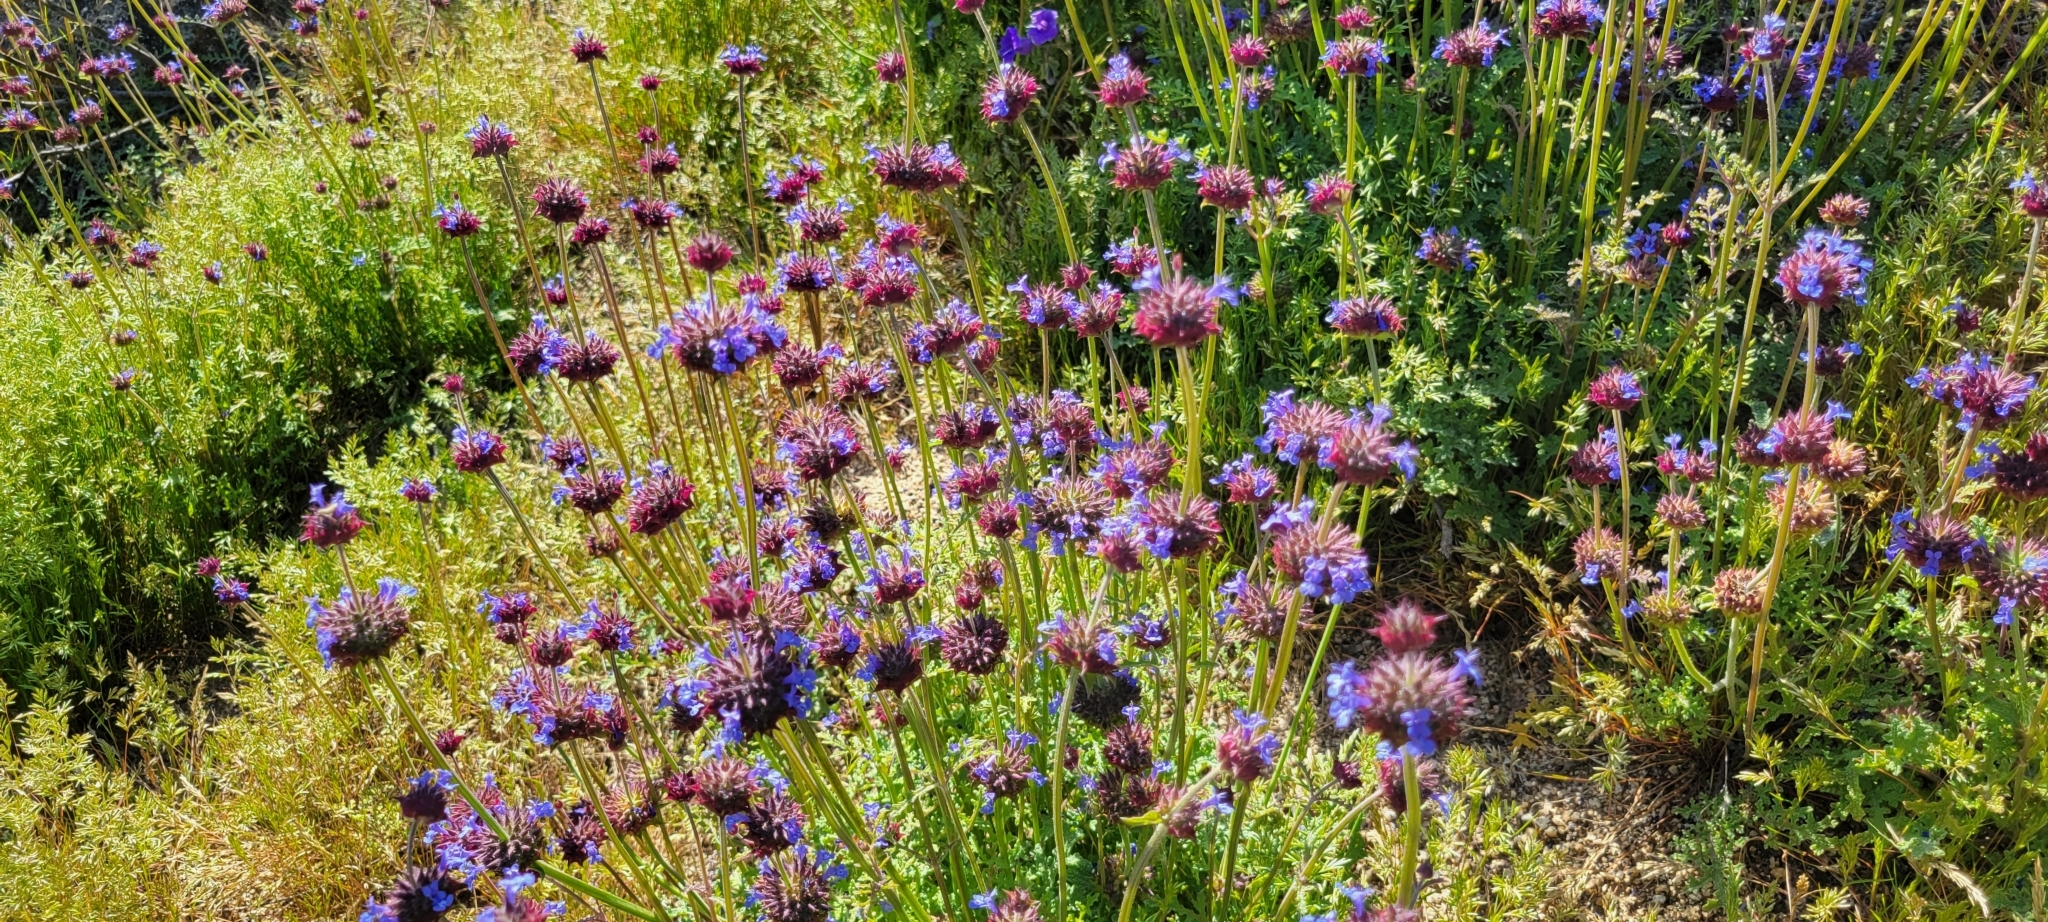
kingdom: Plantae
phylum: Tracheophyta
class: Magnoliopsida
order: Lamiales
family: Lamiaceae
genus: Salvia
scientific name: Salvia columbariae
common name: Chia
